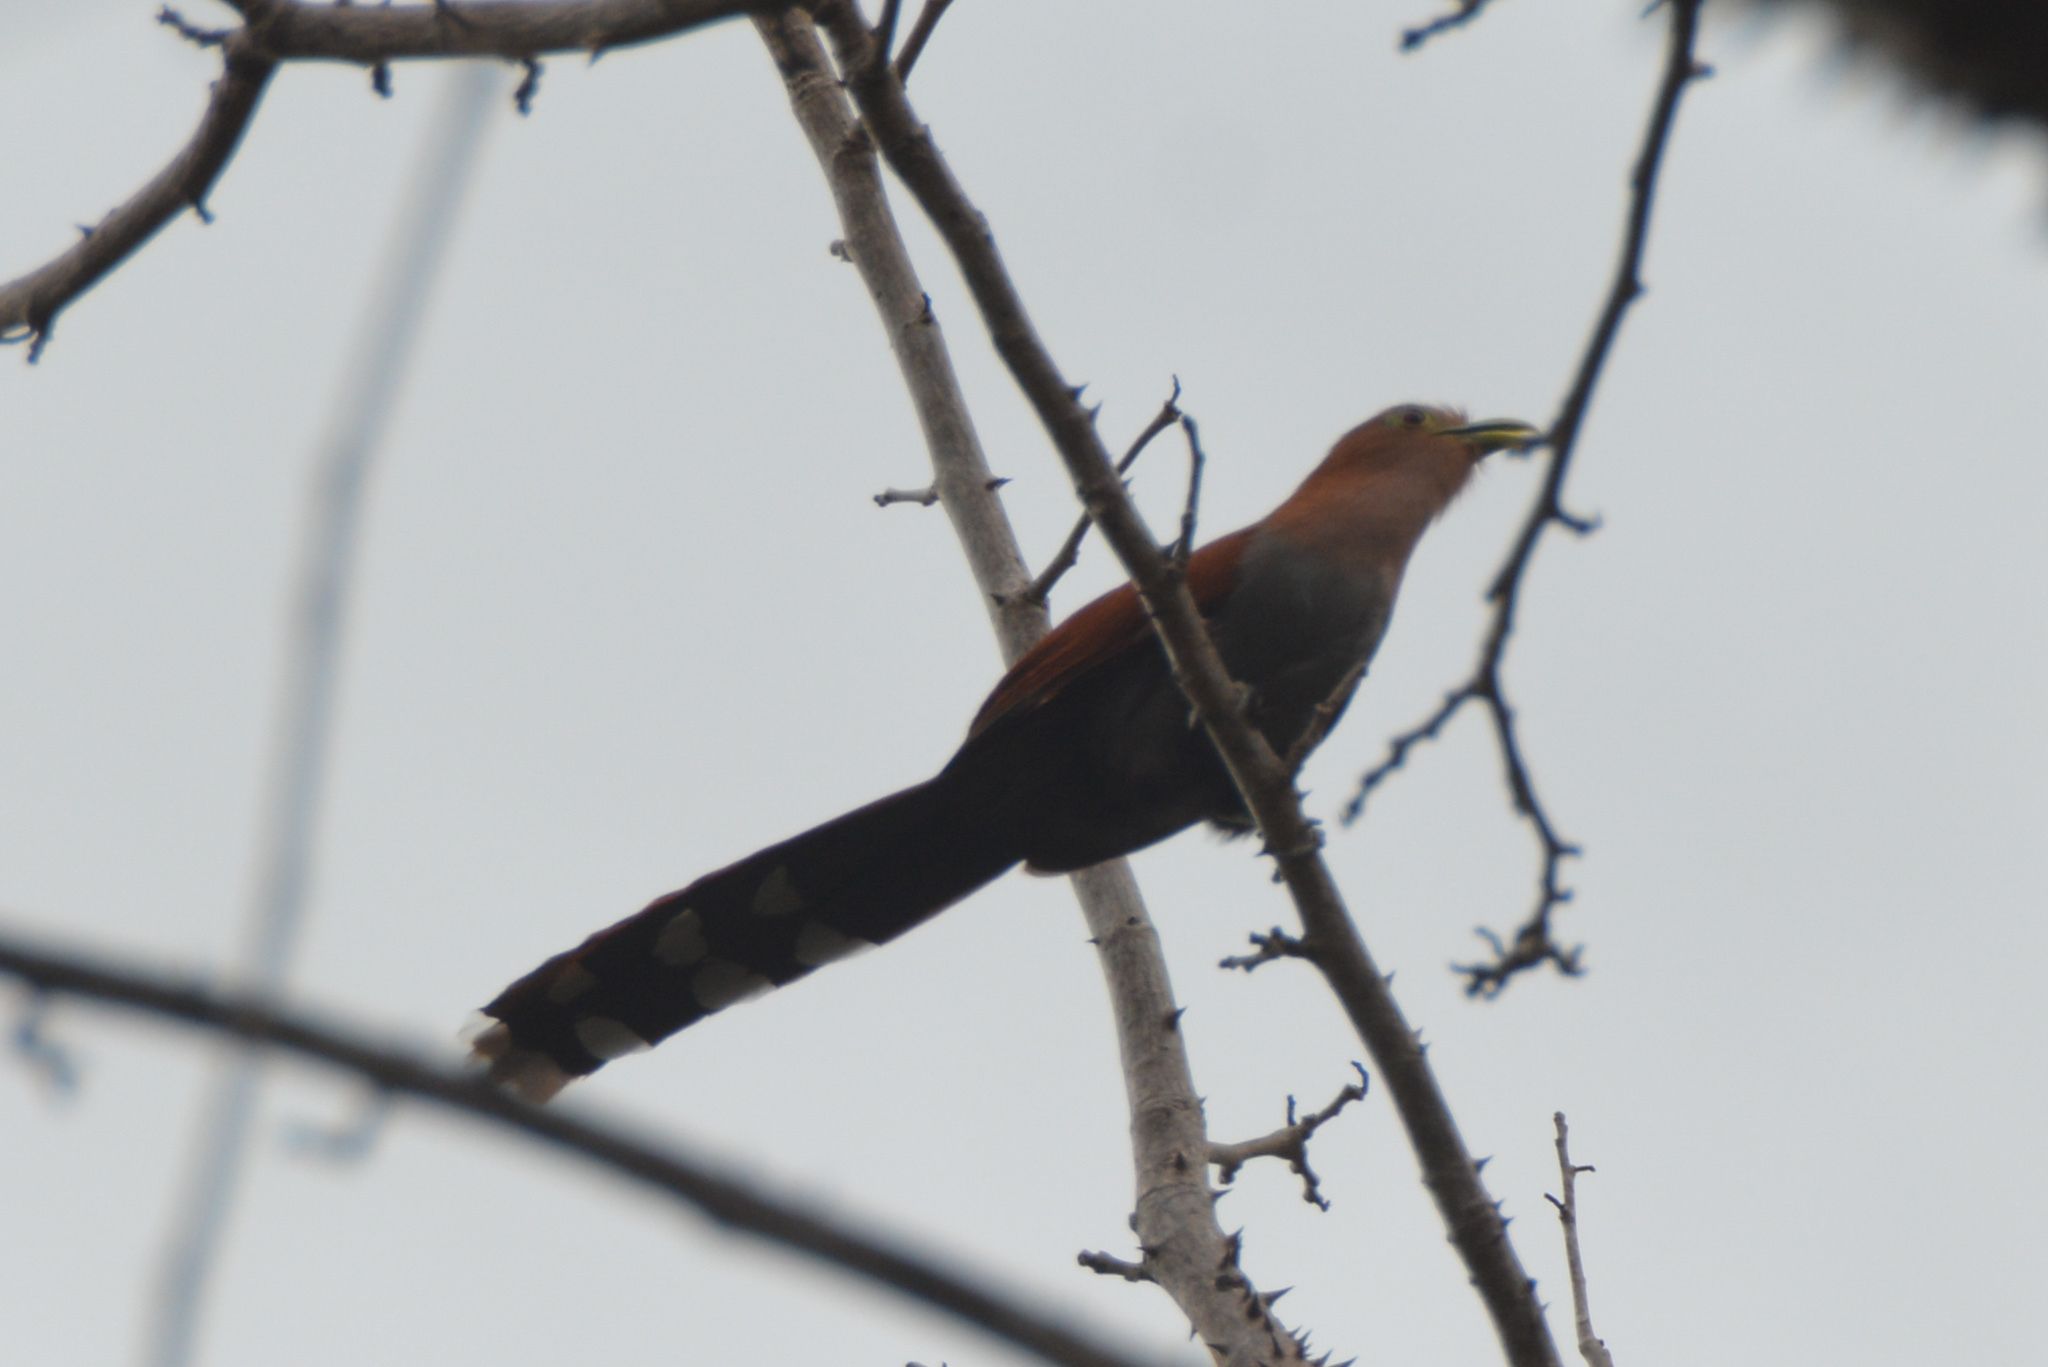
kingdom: Animalia
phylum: Chordata
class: Aves
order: Cuculiformes
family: Cuculidae
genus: Piaya
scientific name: Piaya cayana
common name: Squirrel cuckoo
